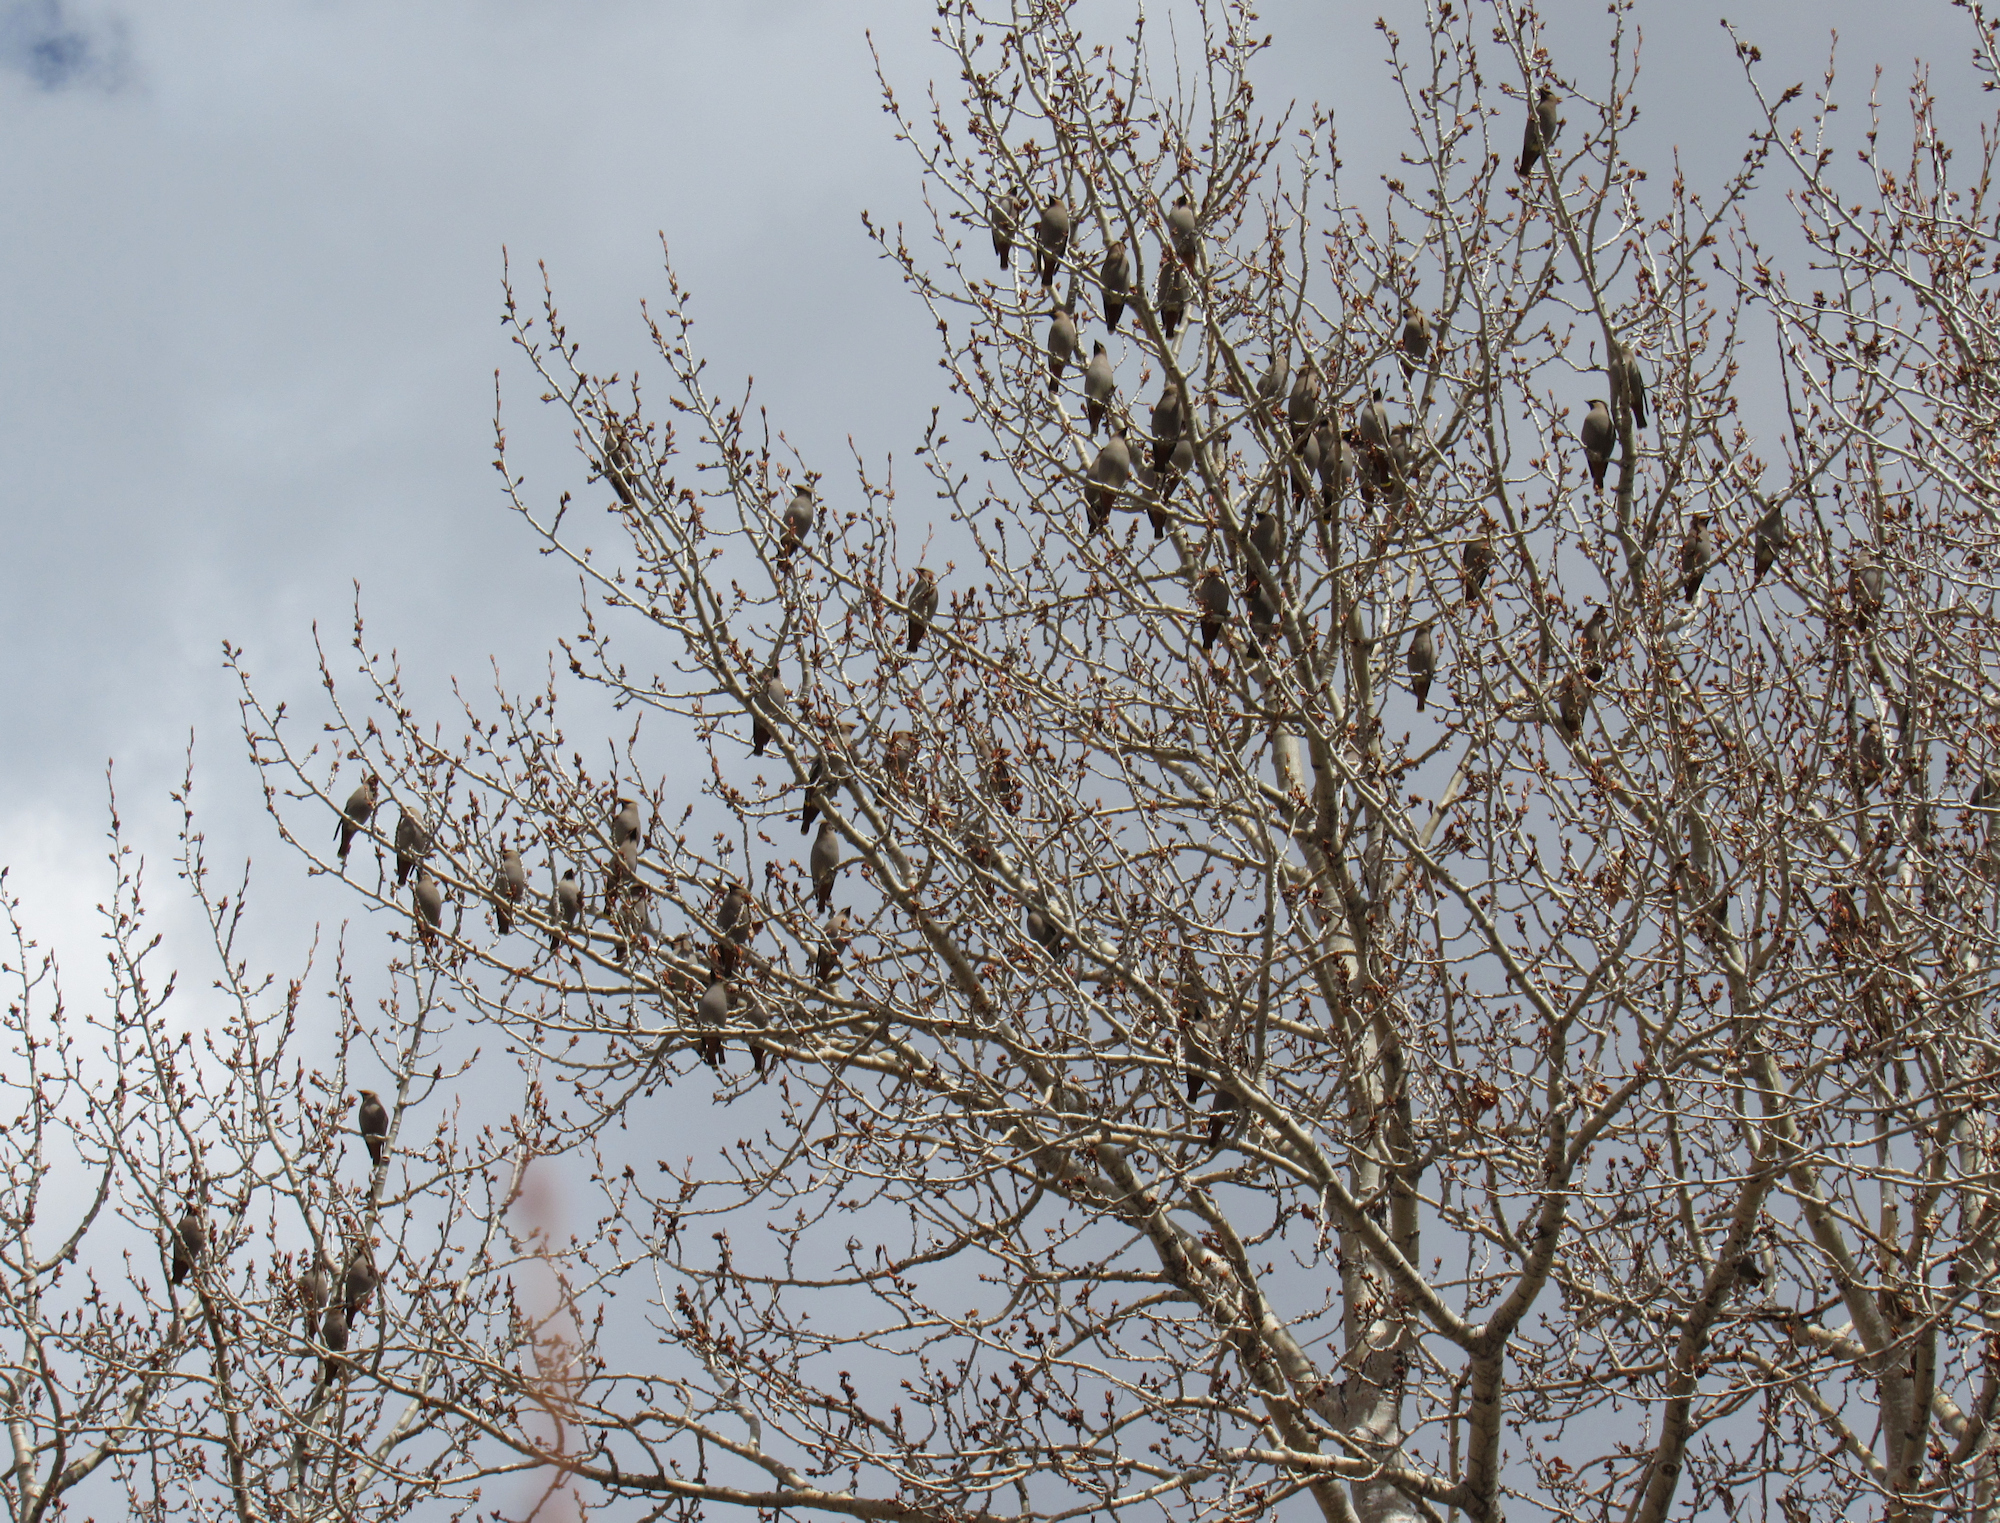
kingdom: Animalia
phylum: Chordata
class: Aves
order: Passeriformes
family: Bombycillidae
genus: Bombycilla
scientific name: Bombycilla garrulus
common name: Bohemian waxwing
